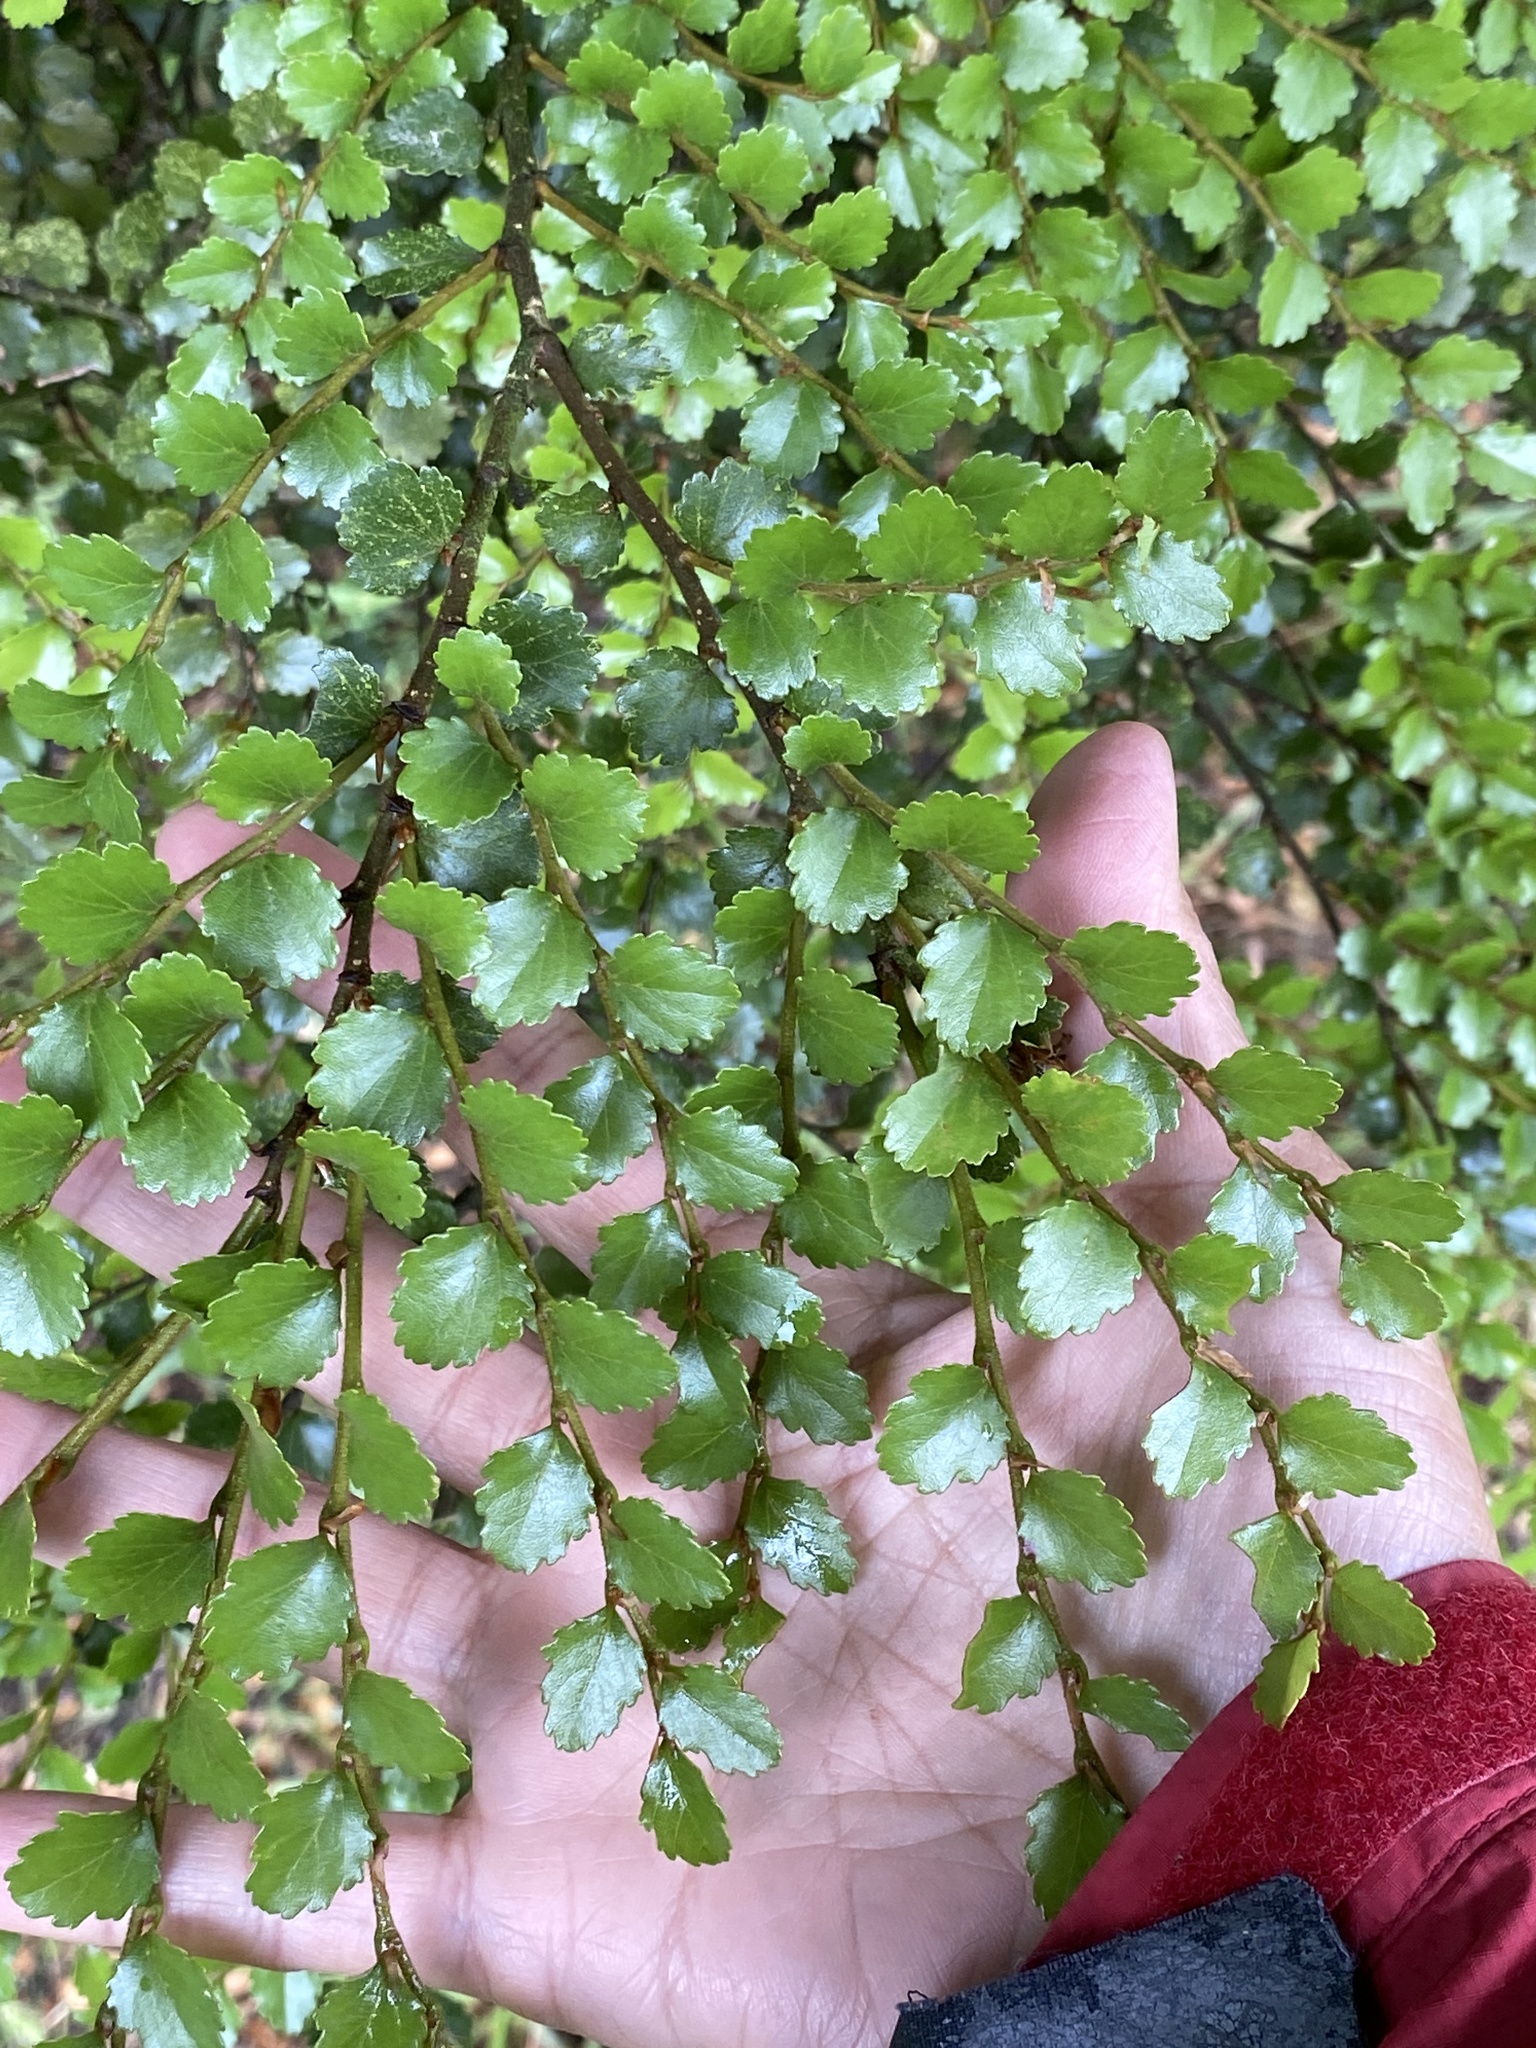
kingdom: Plantae
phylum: Tracheophyta
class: Magnoliopsida
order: Fagales
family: Nothofagaceae
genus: Nothofagus
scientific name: Nothofagus menziesii
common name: Silver beech
